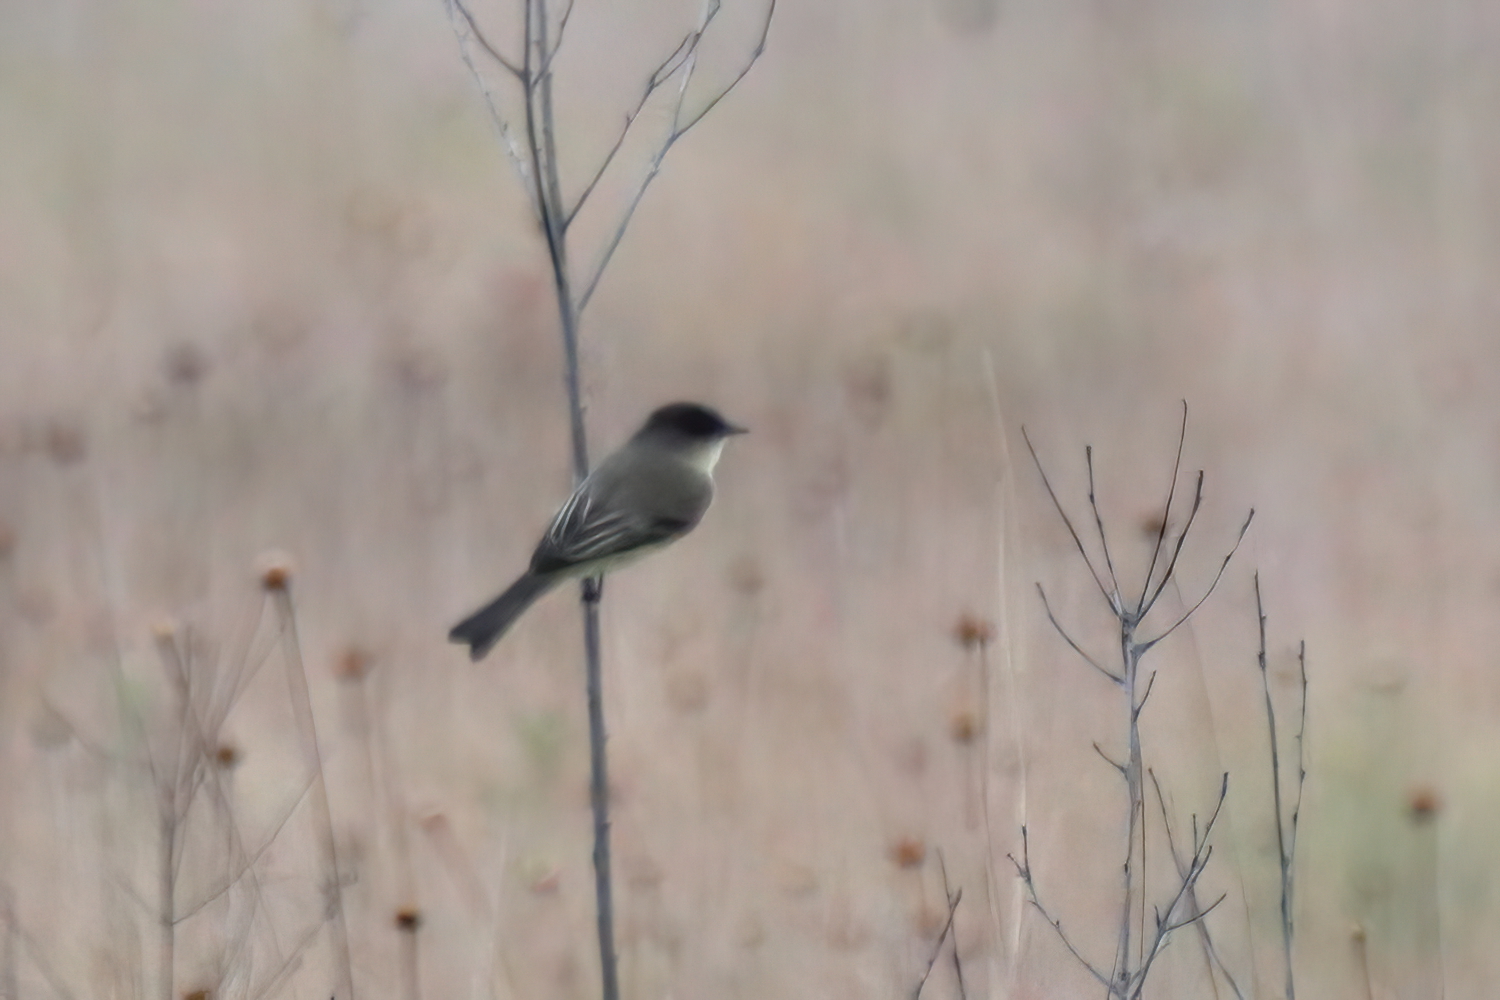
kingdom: Animalia
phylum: Chordata
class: Aves
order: Passeriformes
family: Tyrannidae
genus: Sayornis
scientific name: Sayornis phoebe
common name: Eastern phoebe
